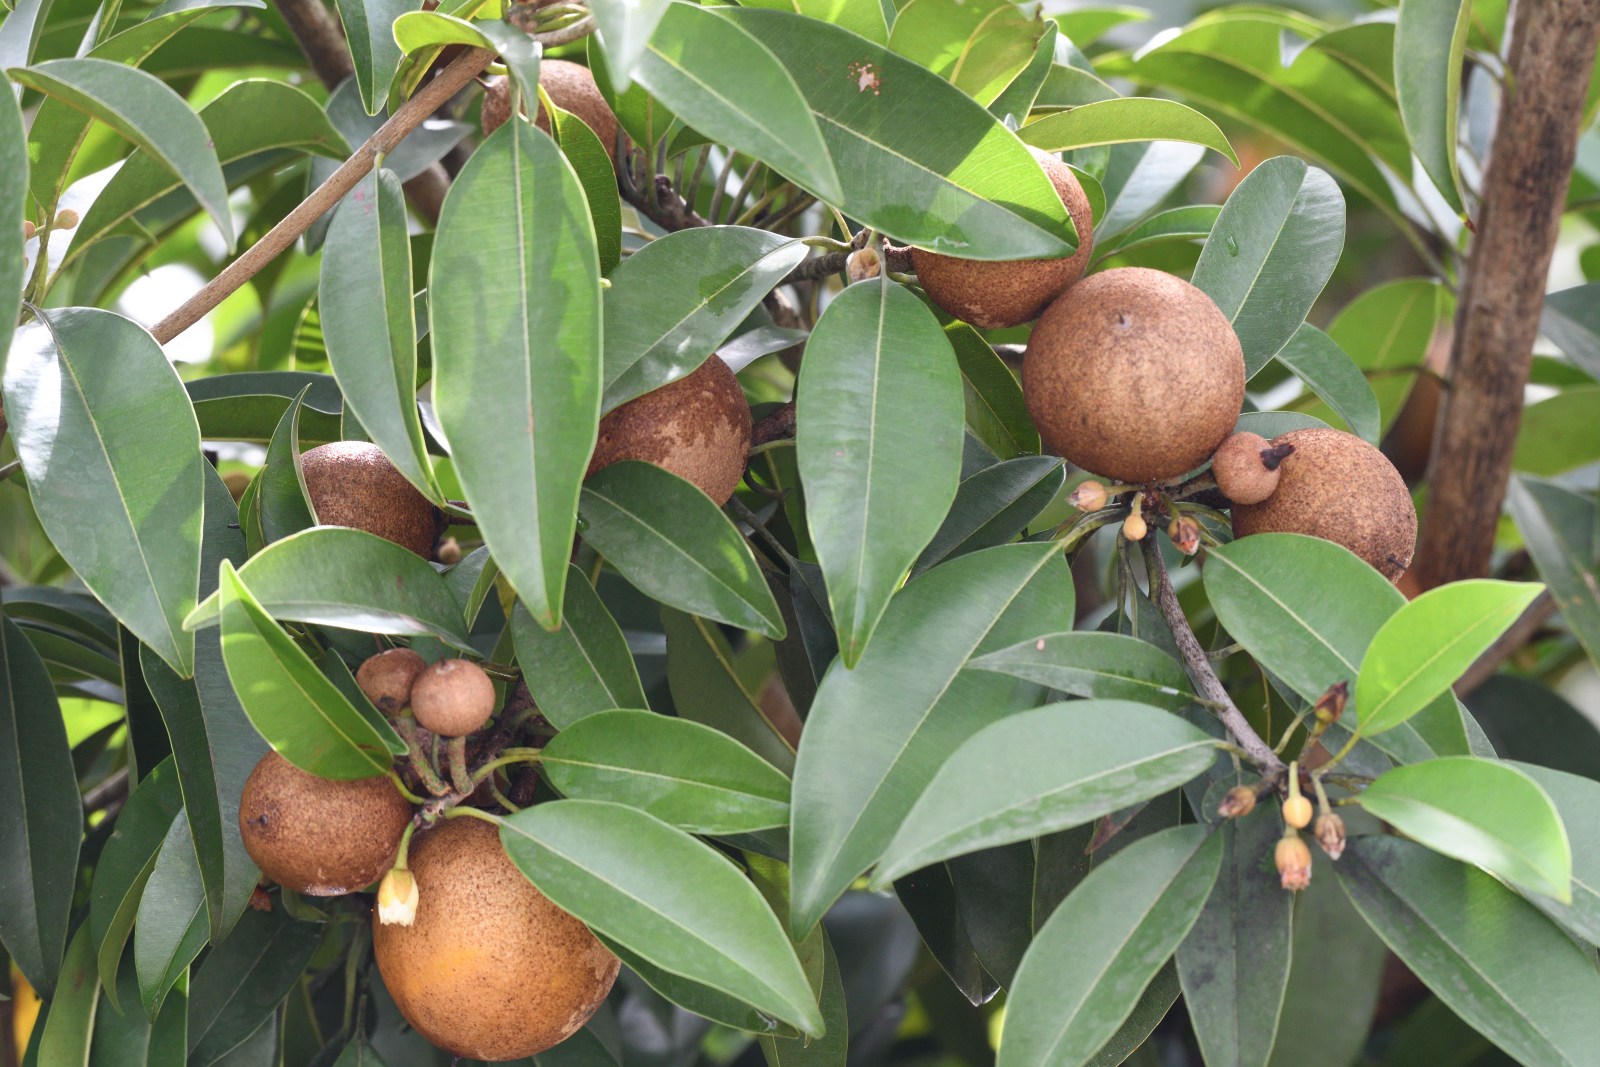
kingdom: Plantae
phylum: Tracheophyta
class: Magnoliopsida
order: Ericales
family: Sapotaceae
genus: Manilkara
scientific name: Manilkara zapota
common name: Sapodilla
